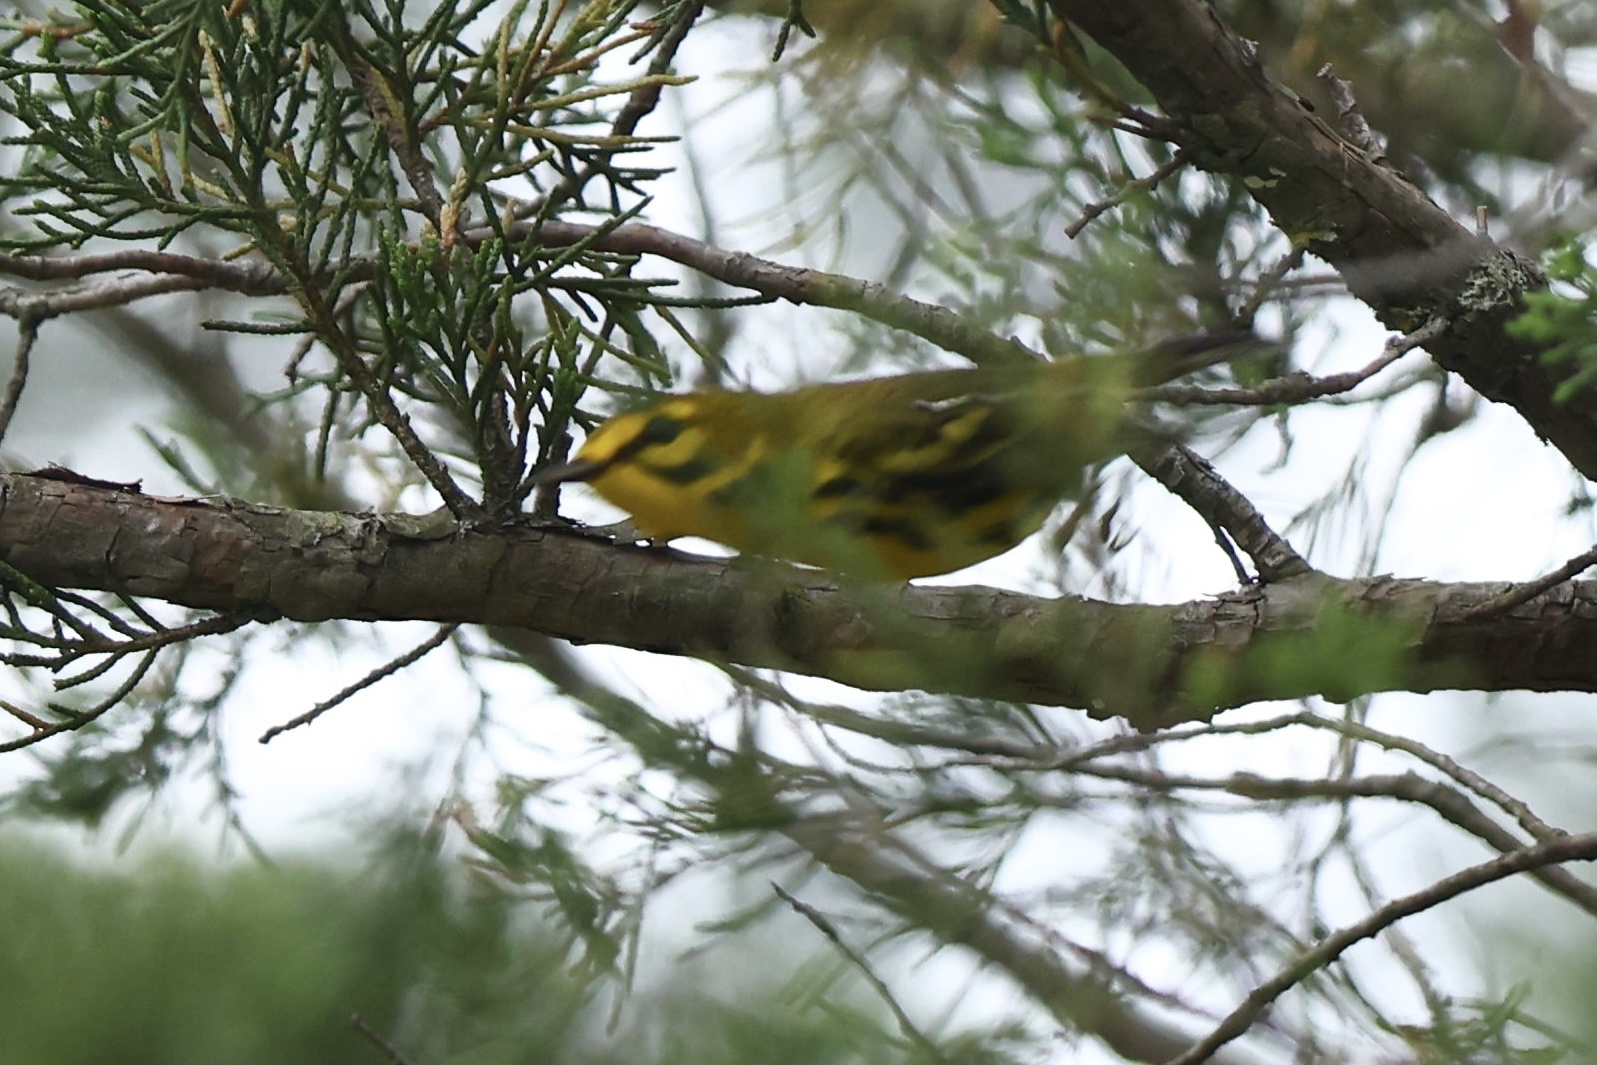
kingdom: Animalia
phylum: Chordata
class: Aves
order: Passeriformes
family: Parulidae
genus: Setophaga
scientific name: Setophaga discolor
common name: Prairie warbler
